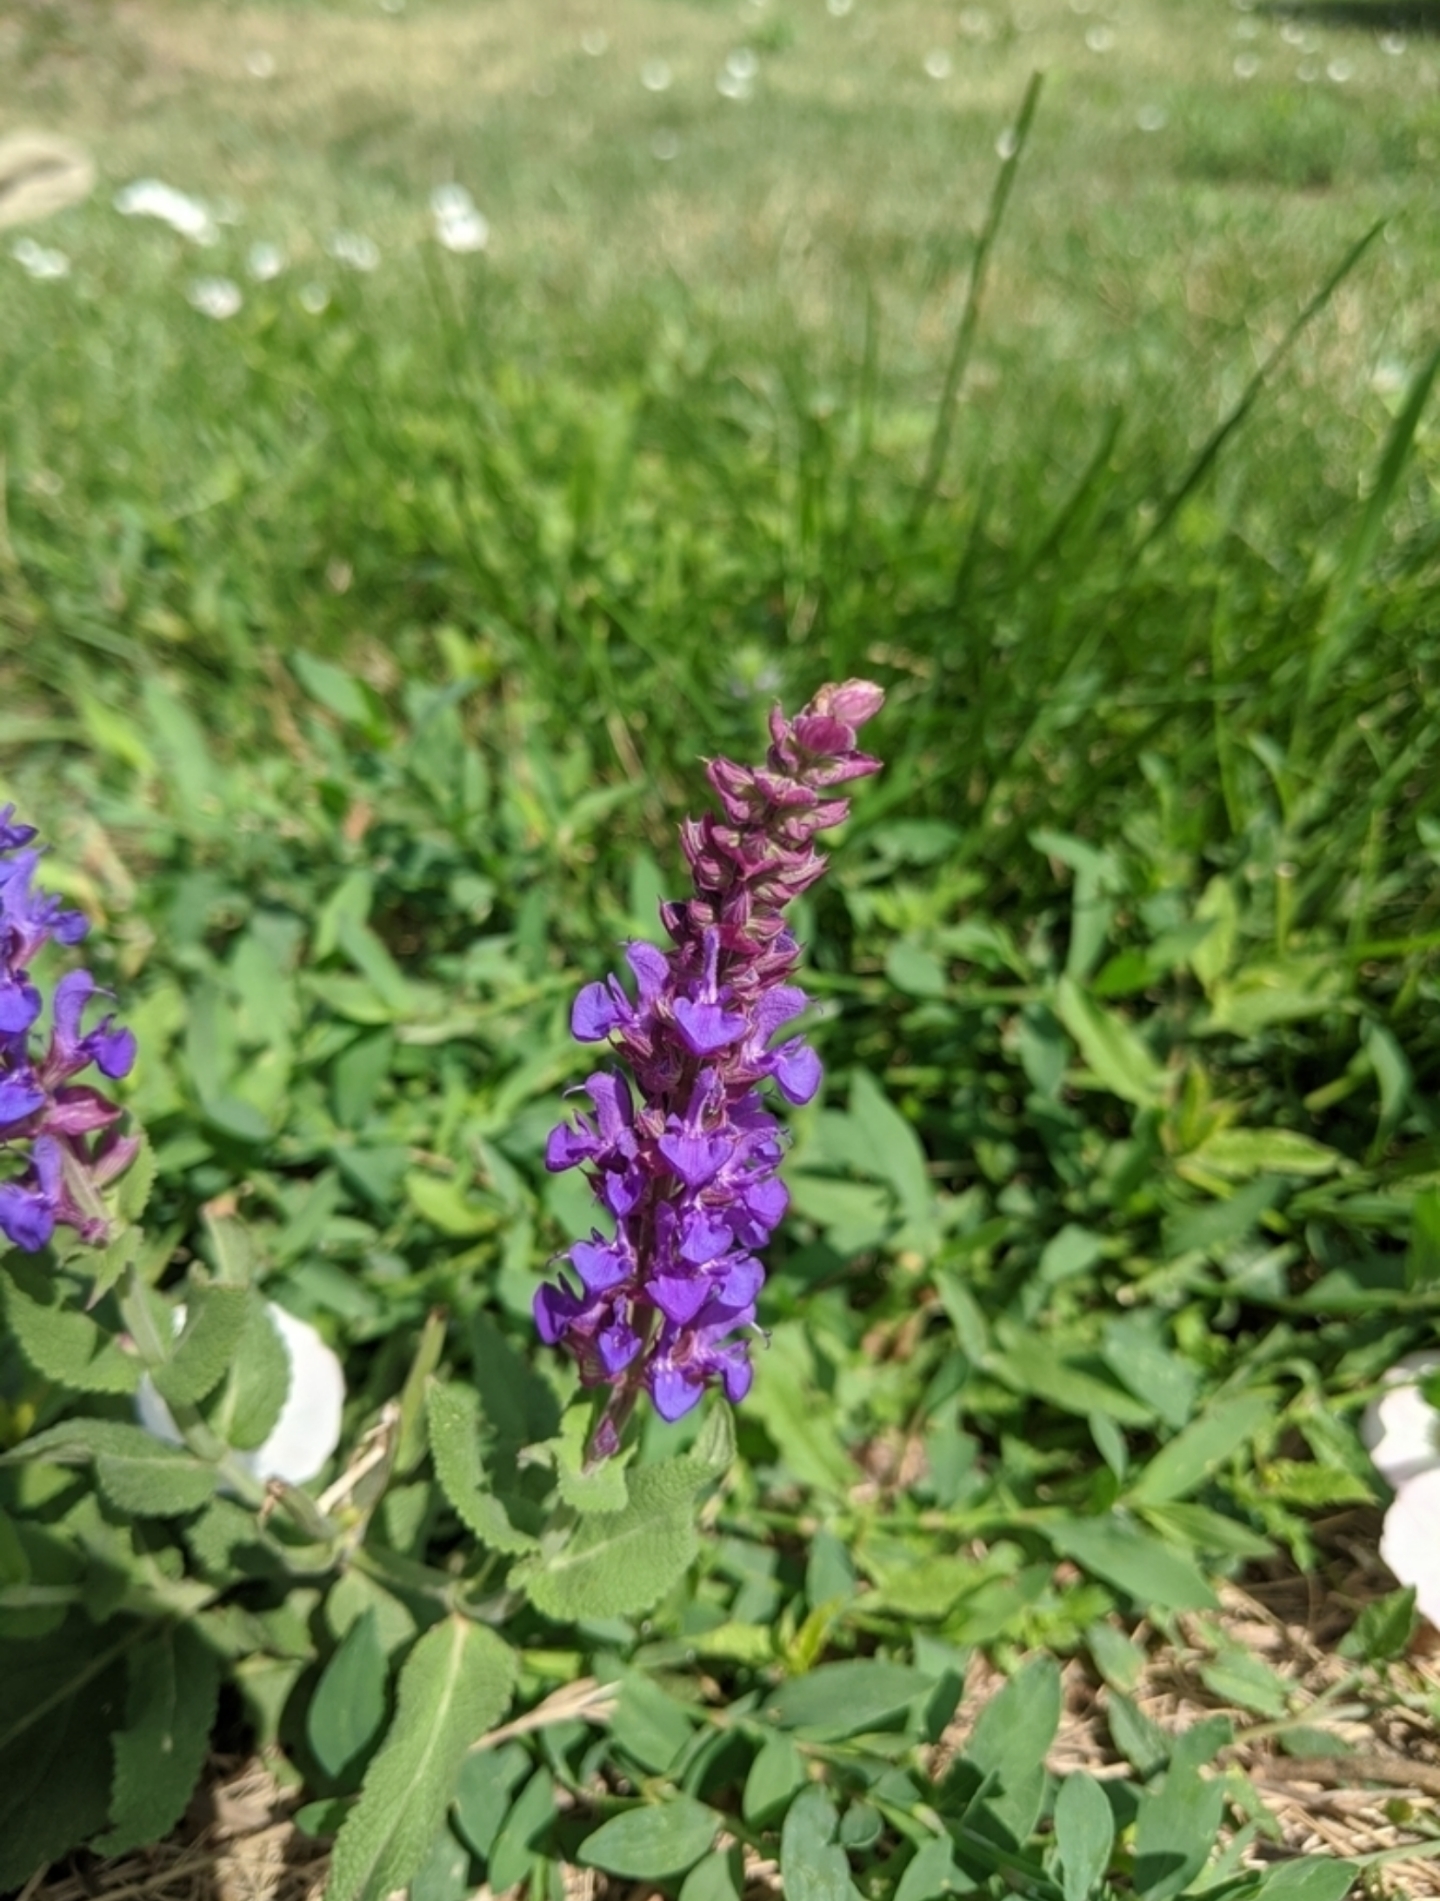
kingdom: Plantae
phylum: Tracheophyta
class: Magnoliopsida
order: Lamiales
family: Lamiaceae
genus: Salvia
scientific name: Salvia nemorosa
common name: Balkan clary
